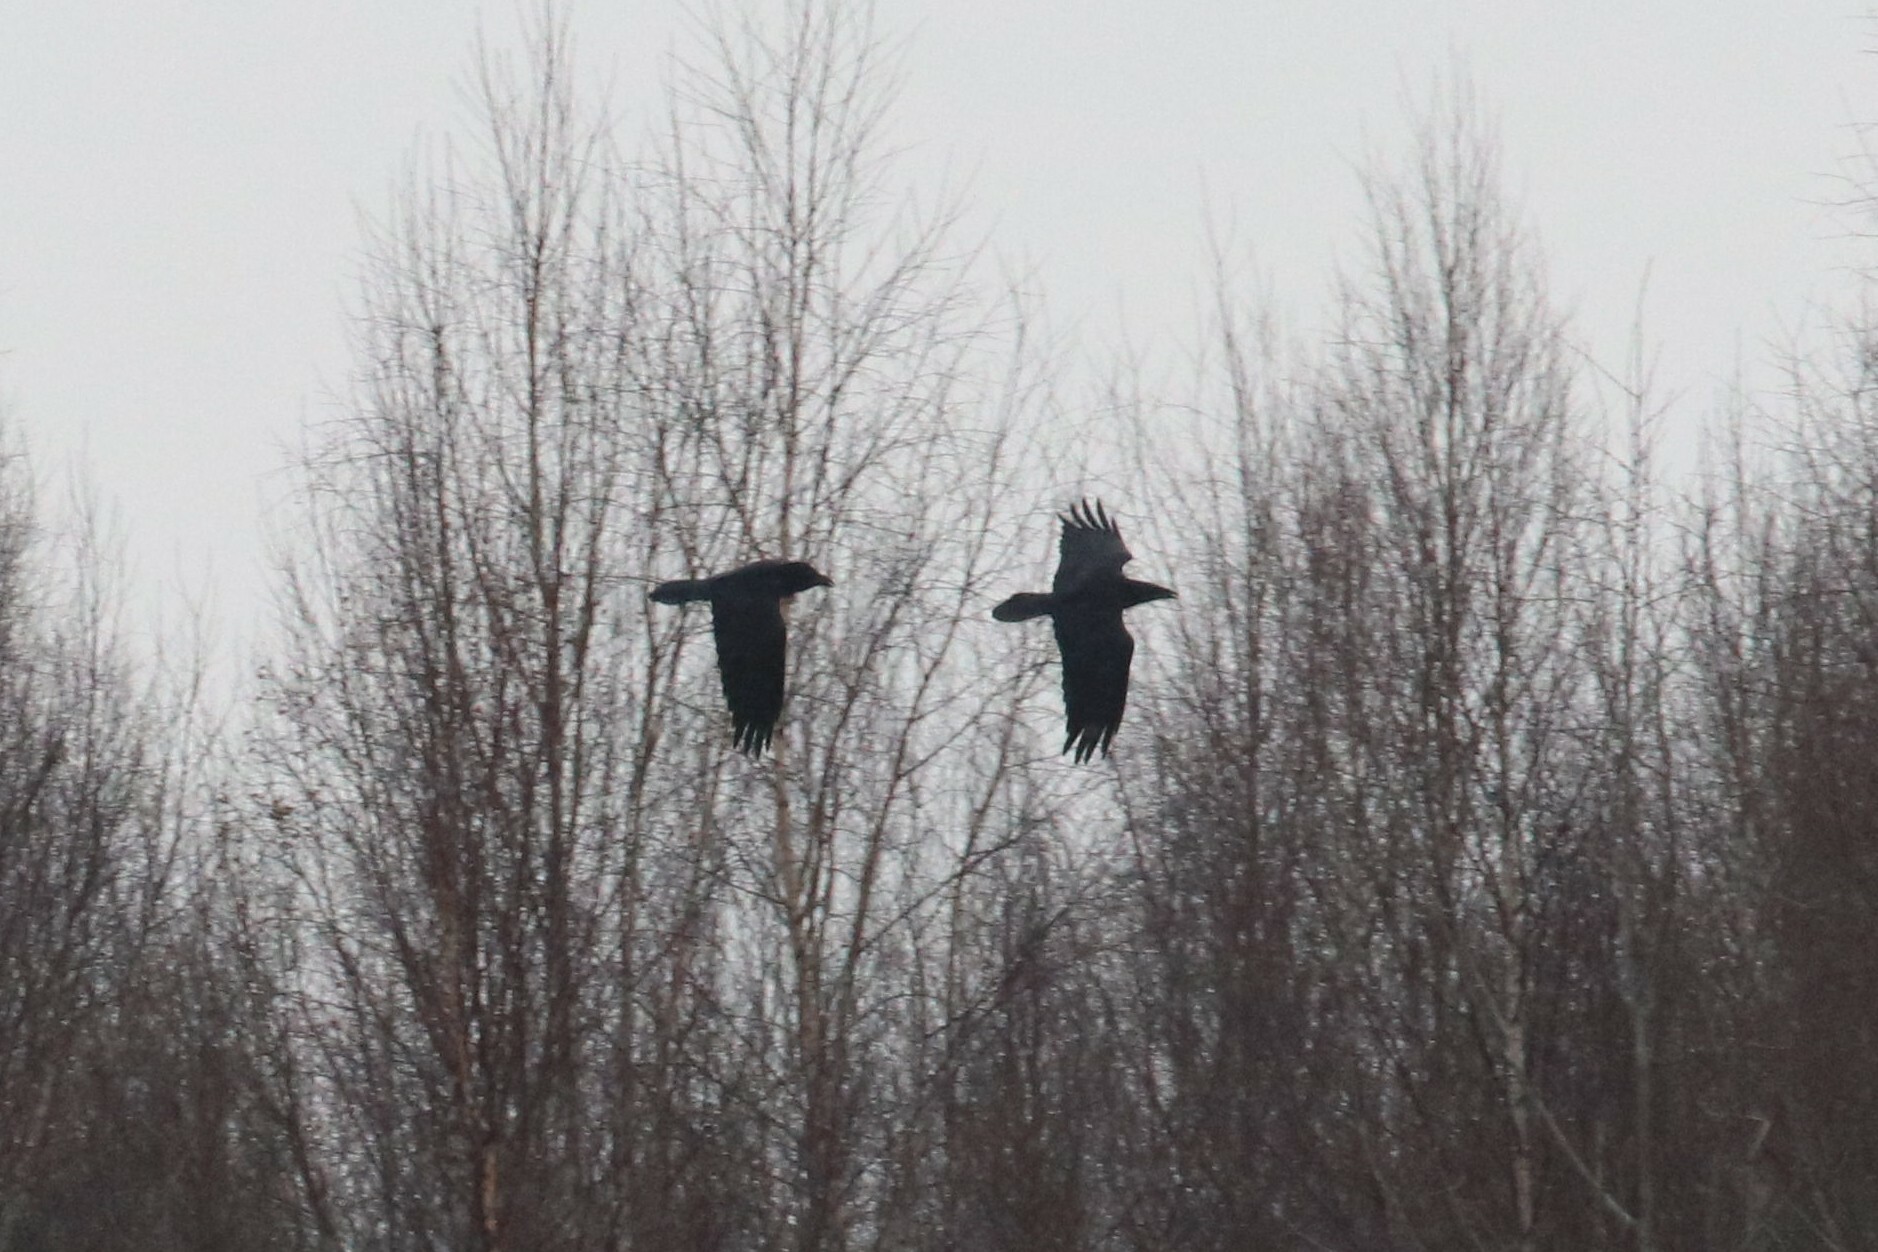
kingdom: Animalia
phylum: Chordata
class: Aves
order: Passeriformes
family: Corvidae
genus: Corvus
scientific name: Corvus corax
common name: Common raven
